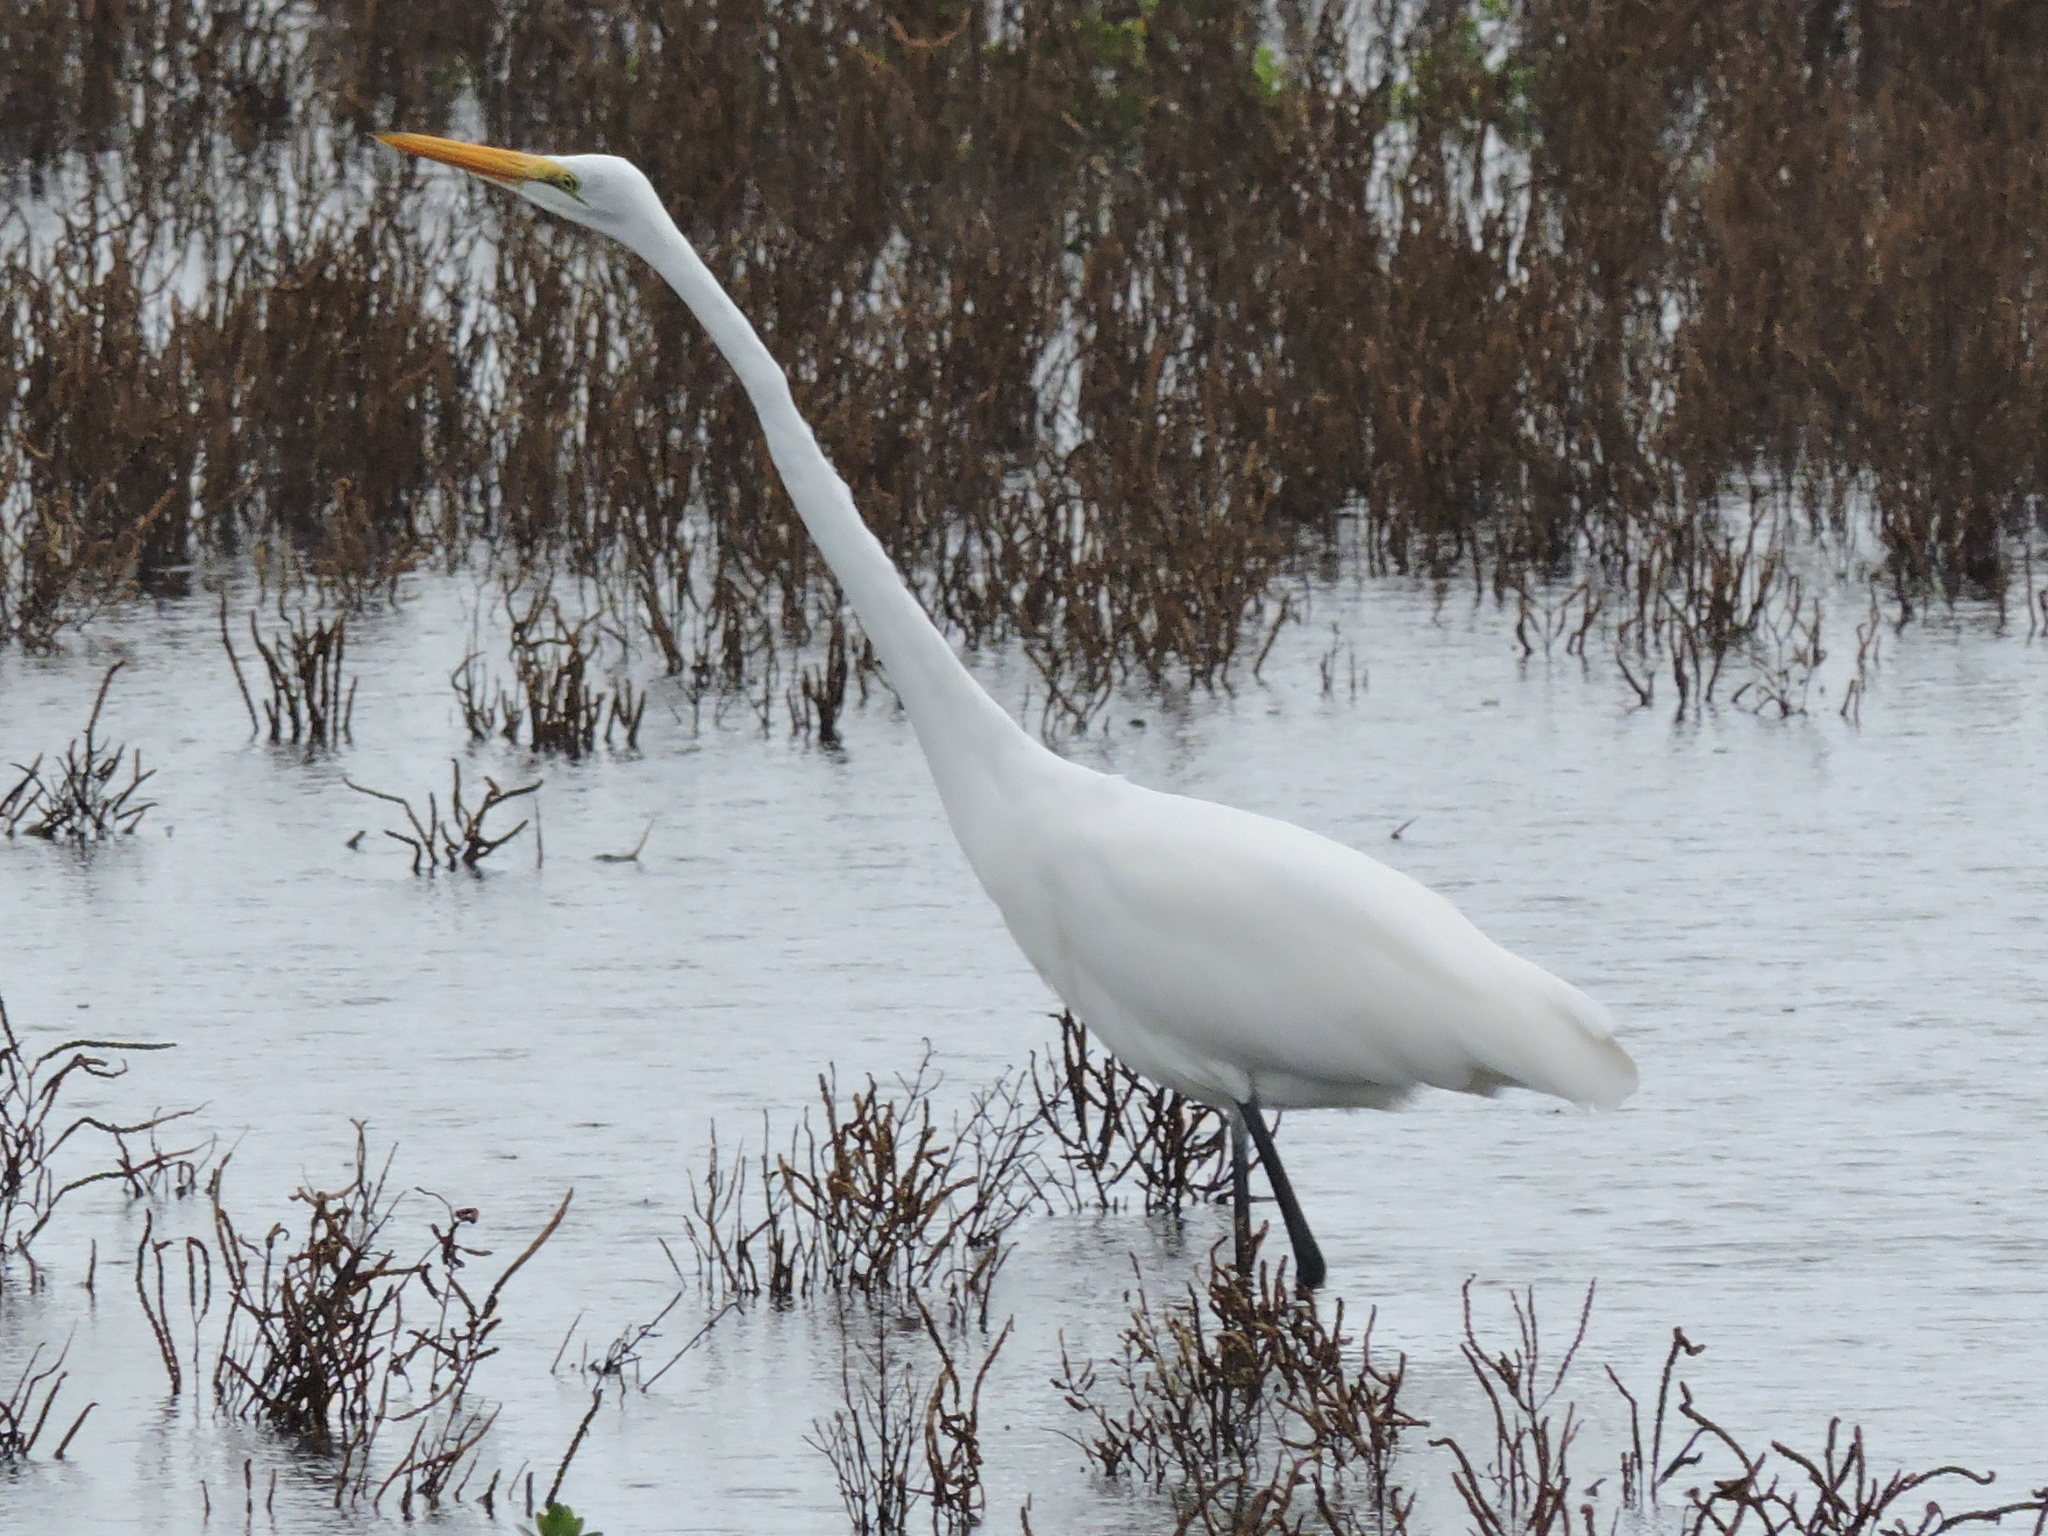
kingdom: Animalia
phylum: Chordata
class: Aves
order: Pelecaniformes
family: Ardeidae
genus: Ardea
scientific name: Ardea alba
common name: Great egret
